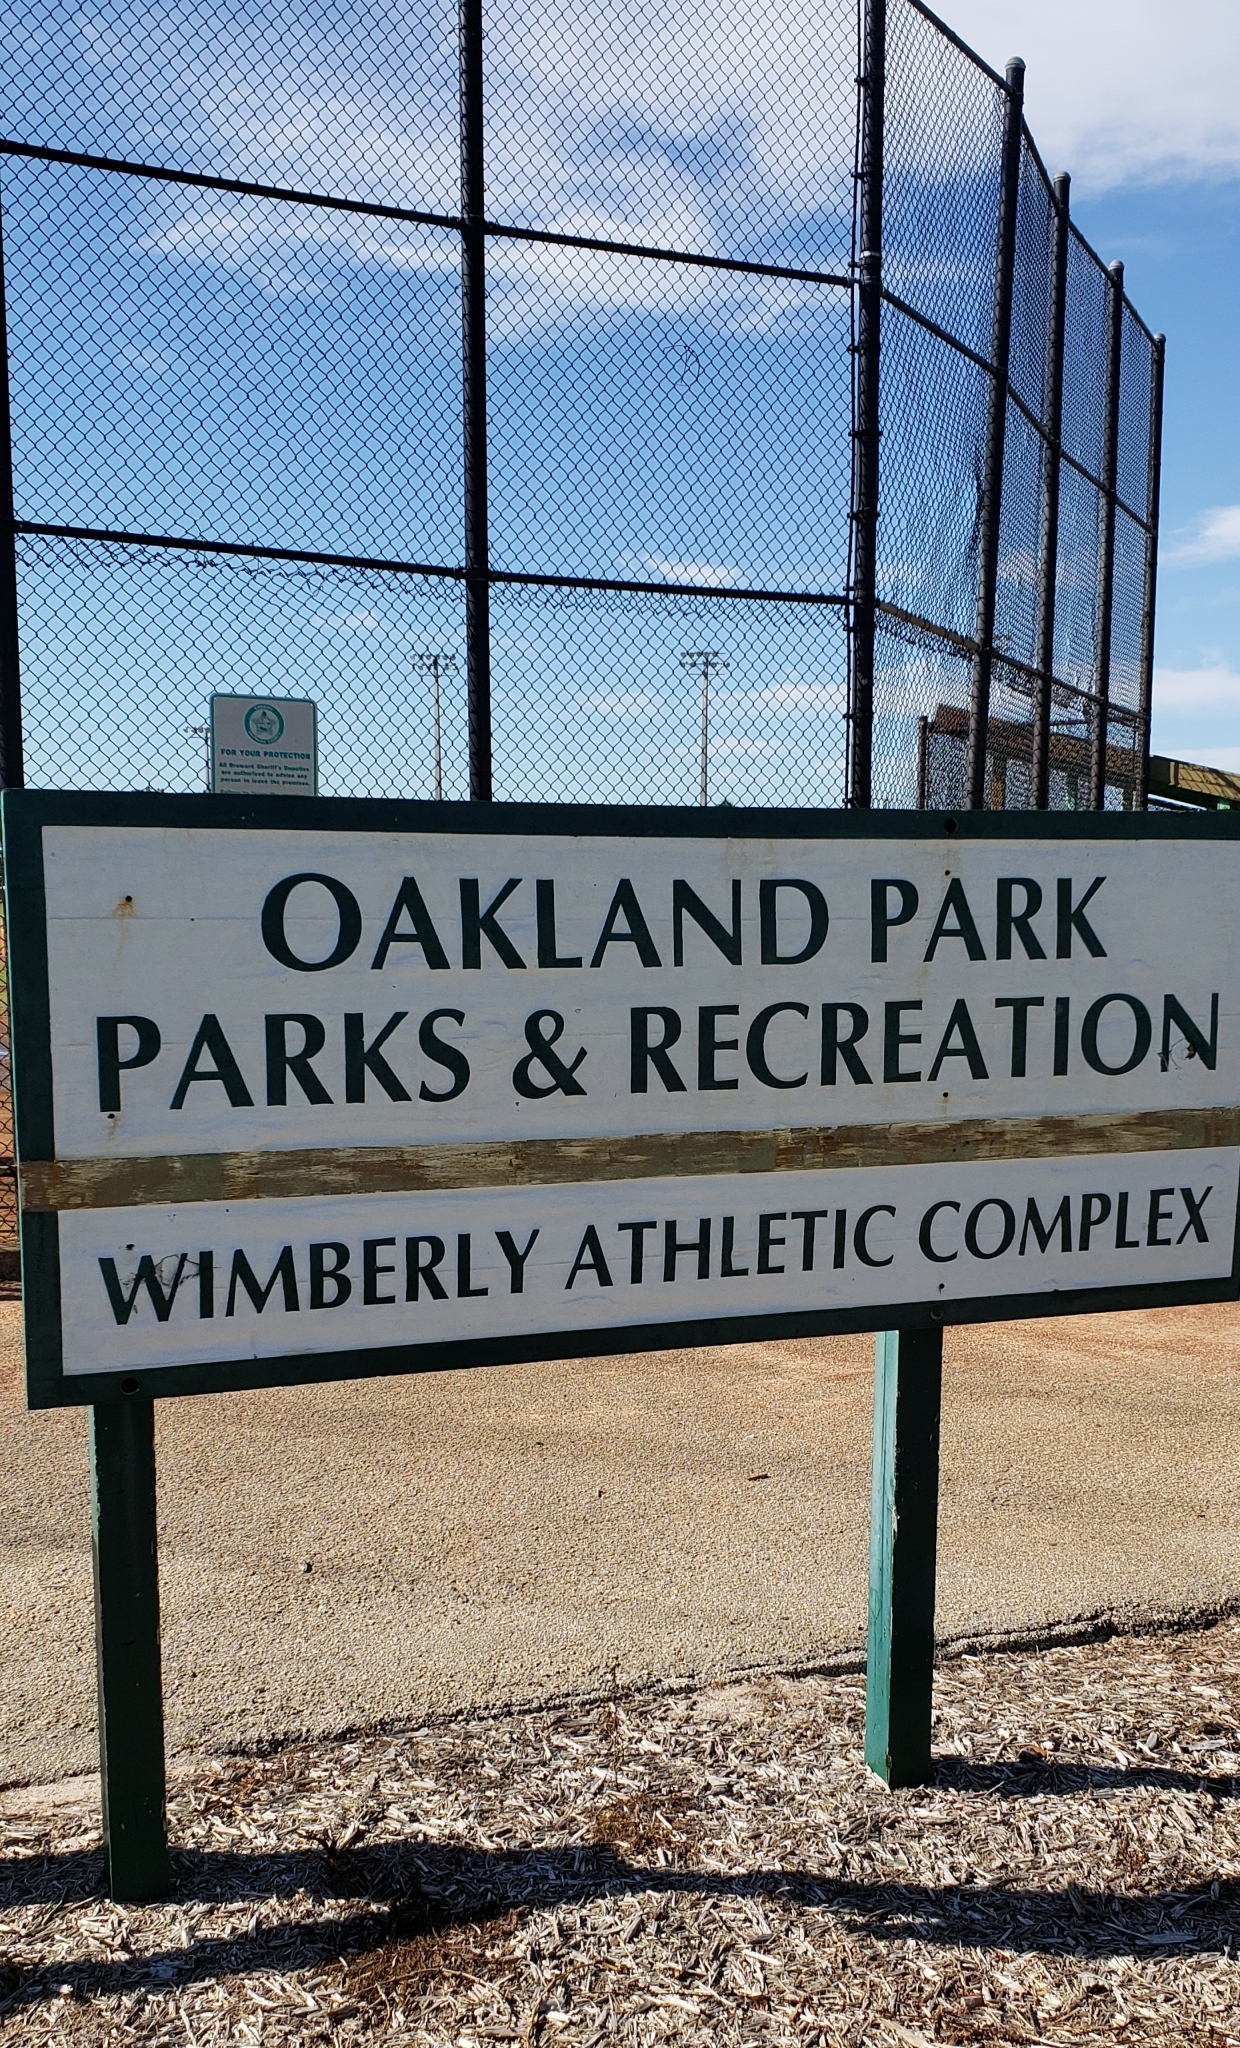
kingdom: Animalia
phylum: Chordata
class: Aves
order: Passeriformes
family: Corvidae
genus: Cyanocitta
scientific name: Cyanocitta cristata
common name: Blue jay
